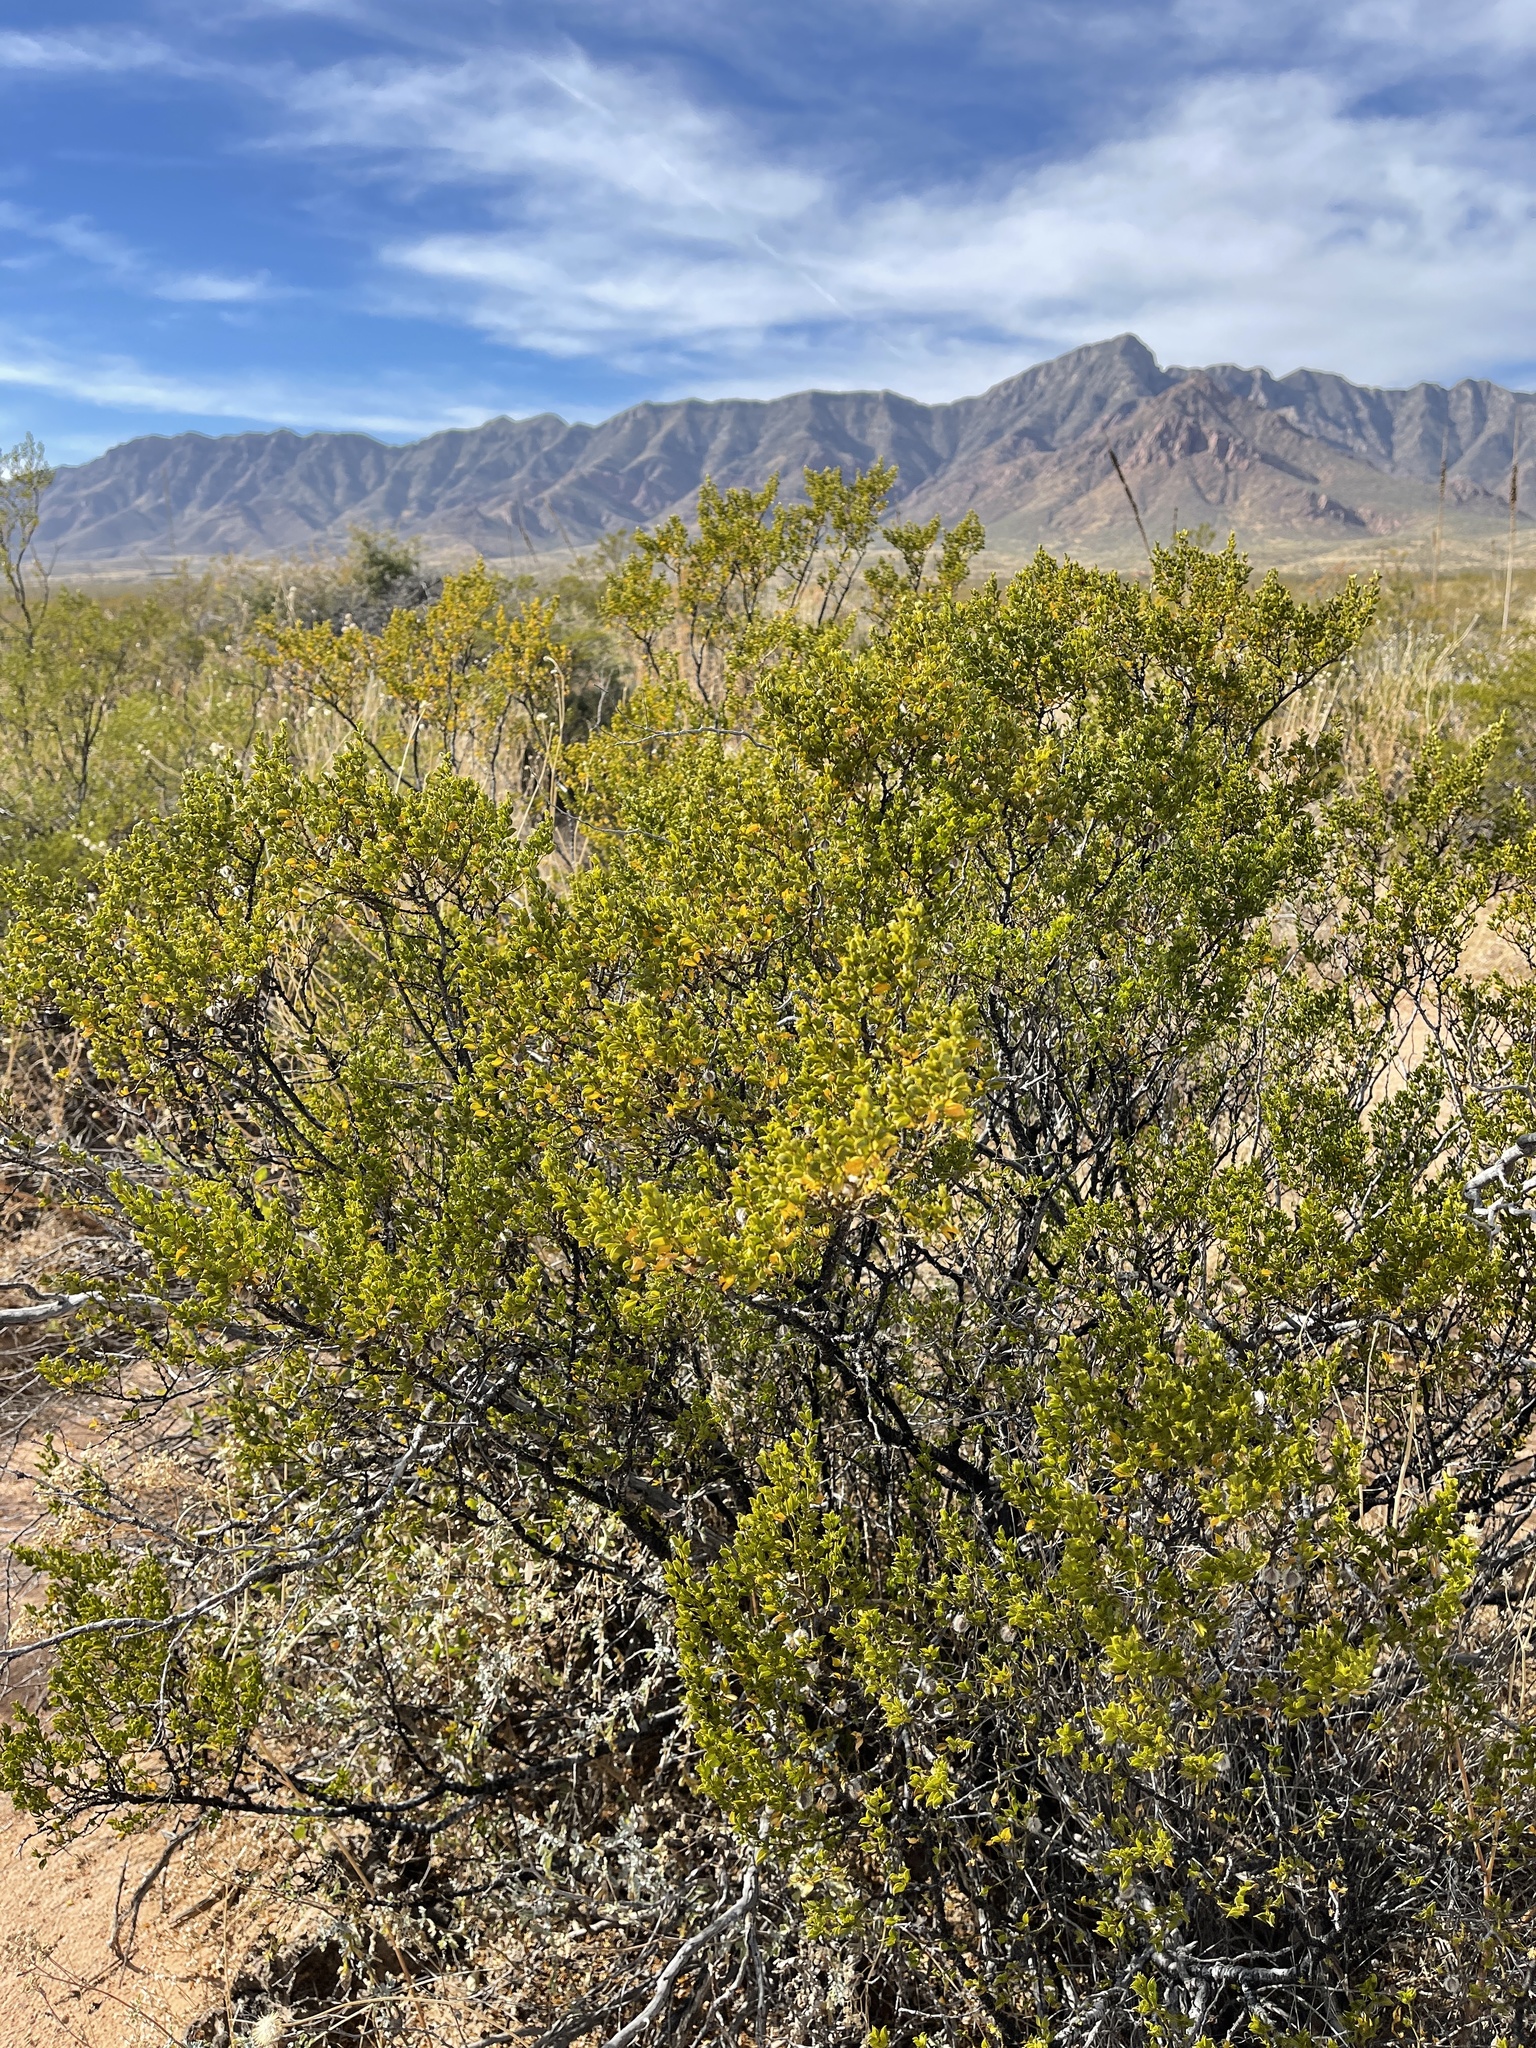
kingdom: Plantae
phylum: Tracheophyta
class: Magnoliopsida
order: Zygophyllales
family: Zygophyllaceae
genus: Larrea
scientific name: Larrea tridentata
